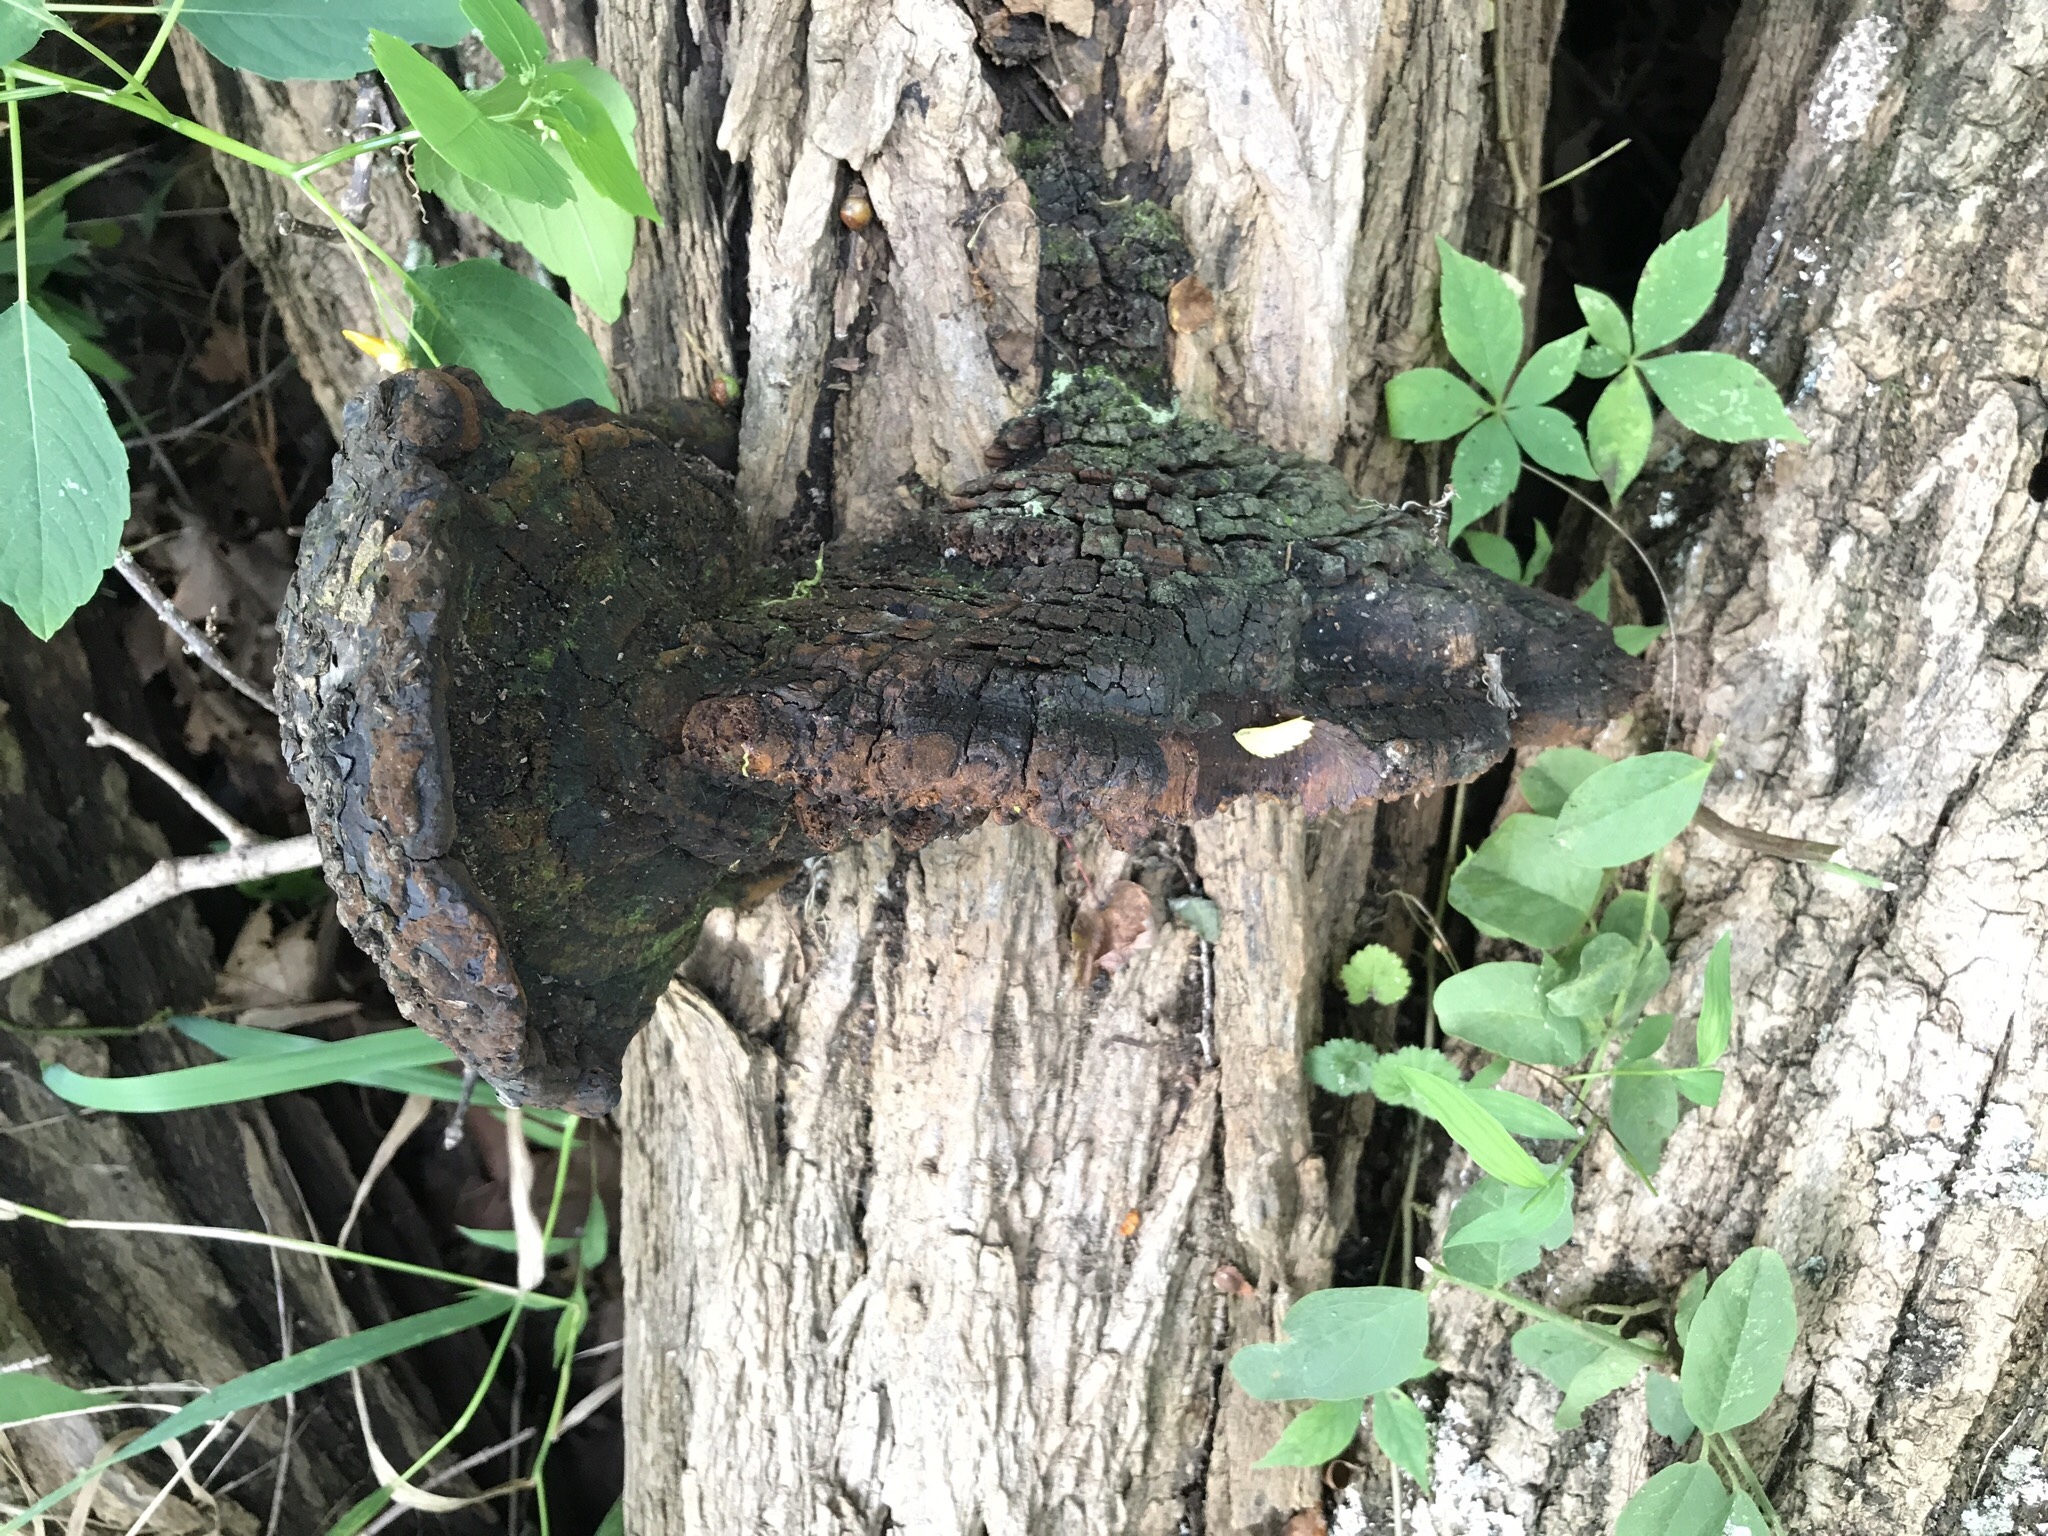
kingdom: Fungi
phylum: Basidiomycota
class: Agaricomycetes
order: Hymenochaetales
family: Hymenochaetaceae
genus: Phellinus
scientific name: Phellinus robiniae
